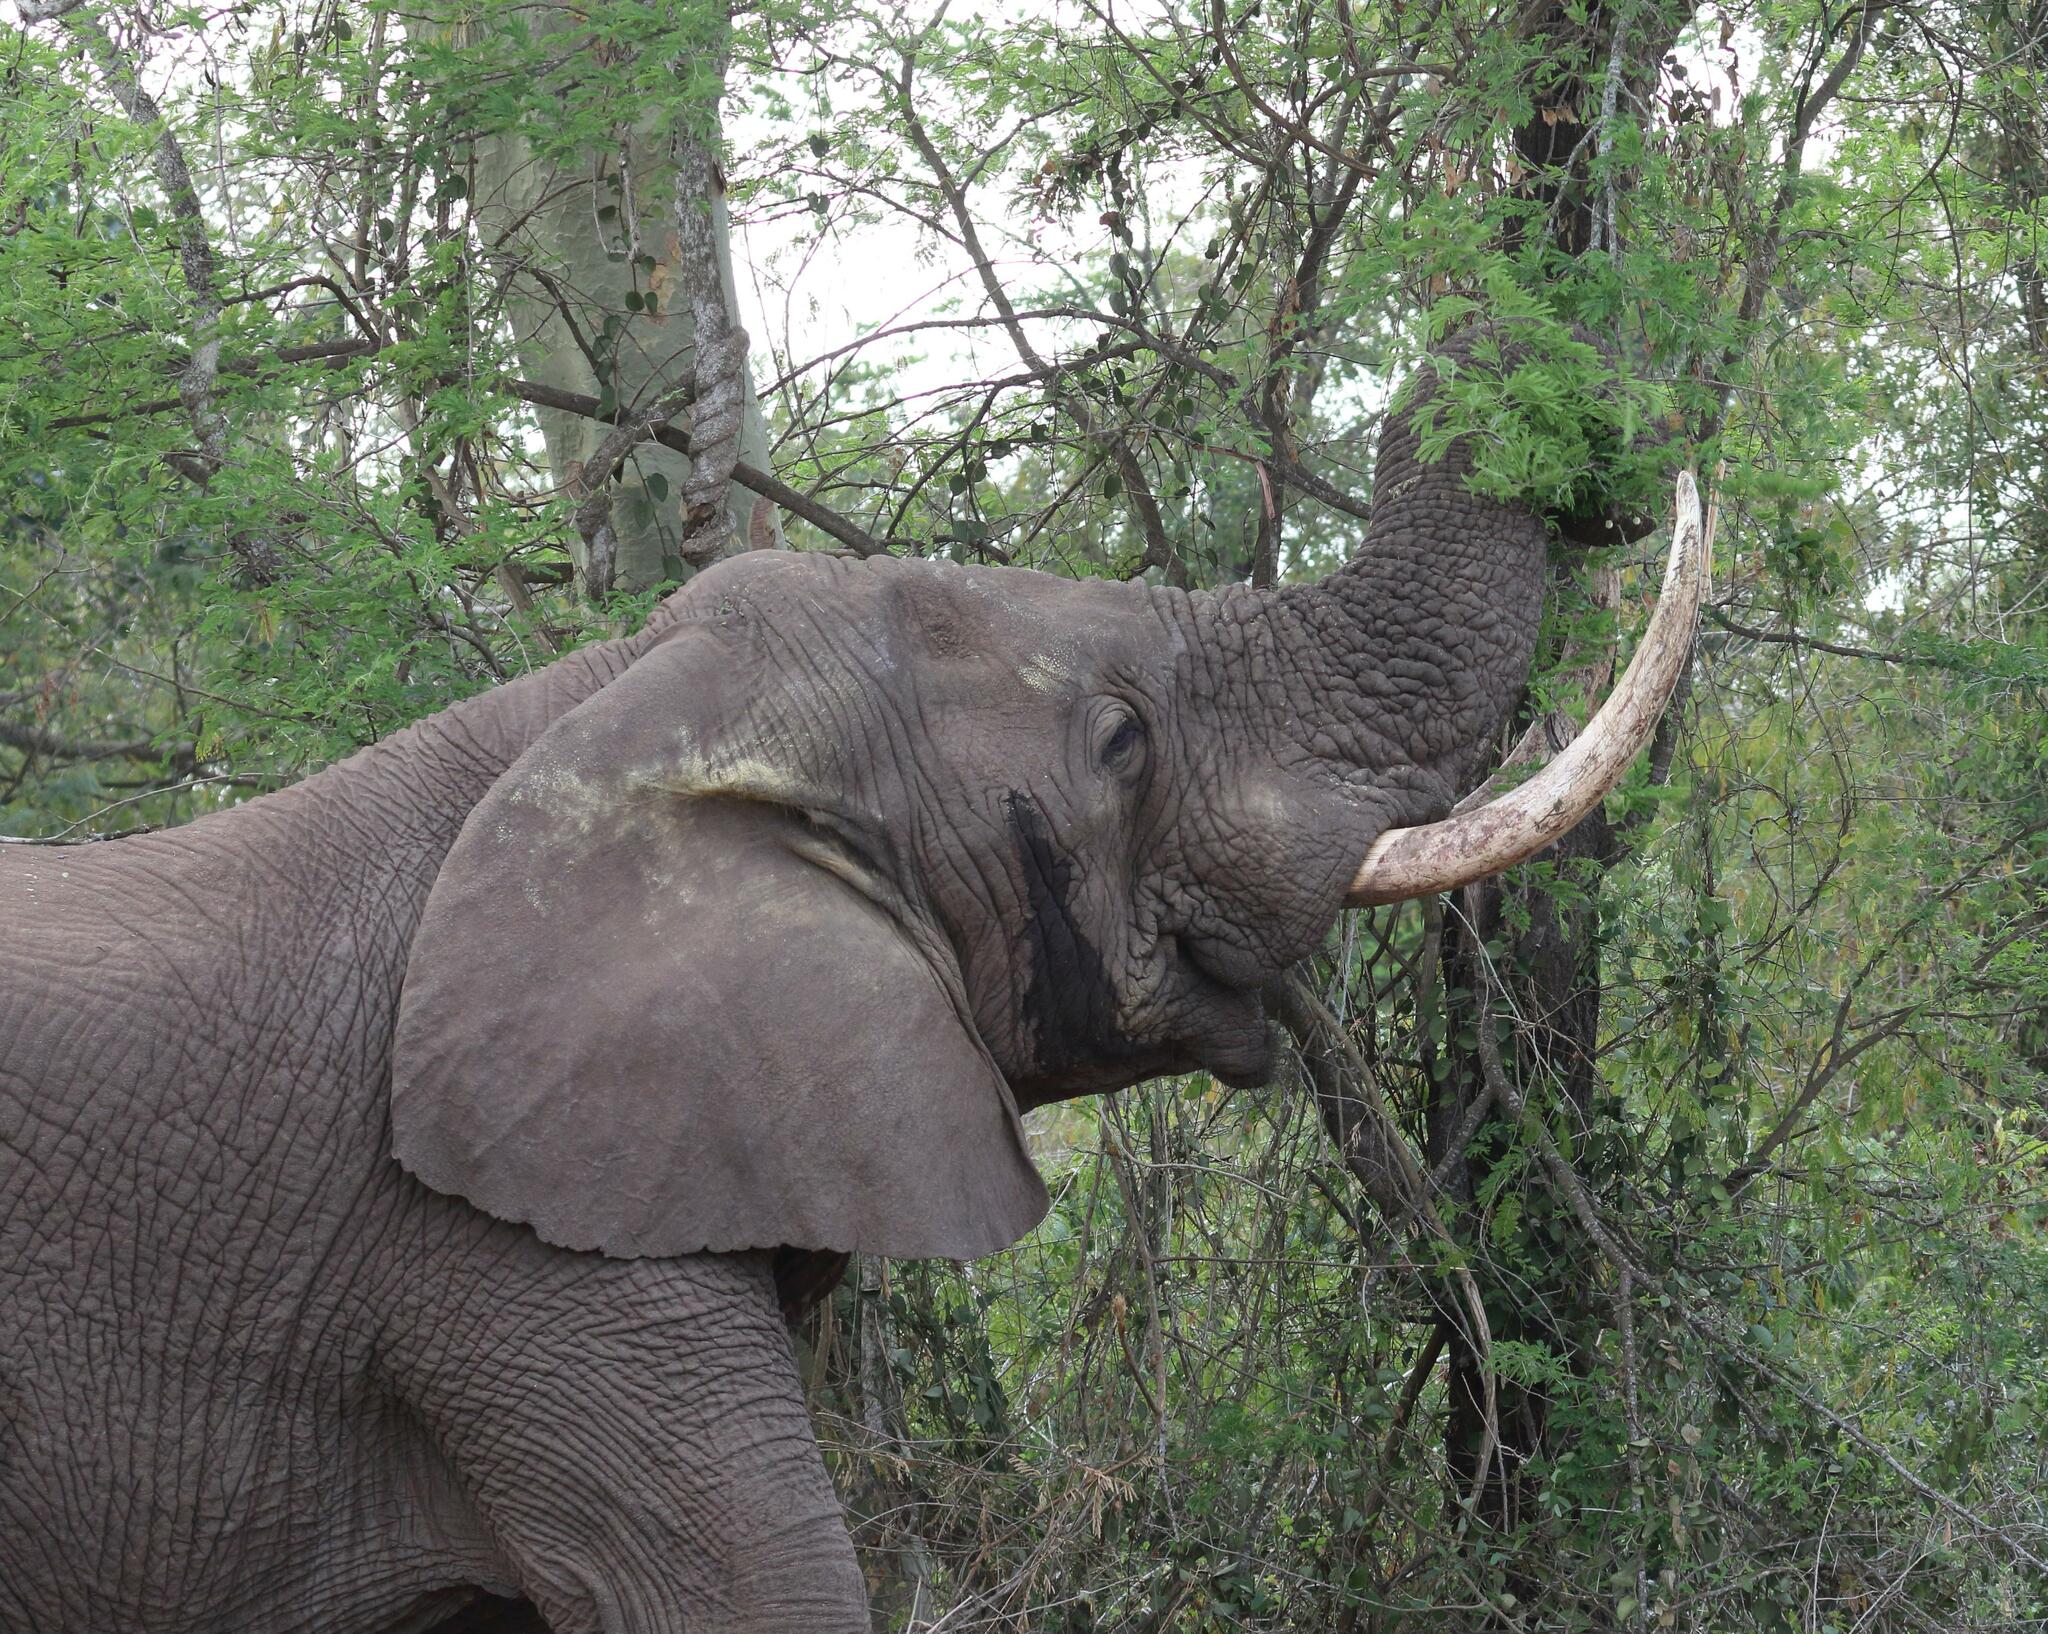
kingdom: Animalia
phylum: Chordata
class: Mammalia
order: Proboscidea
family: Elephantidae
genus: Loxodonta
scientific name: Loxodonta africana
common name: African elephant
